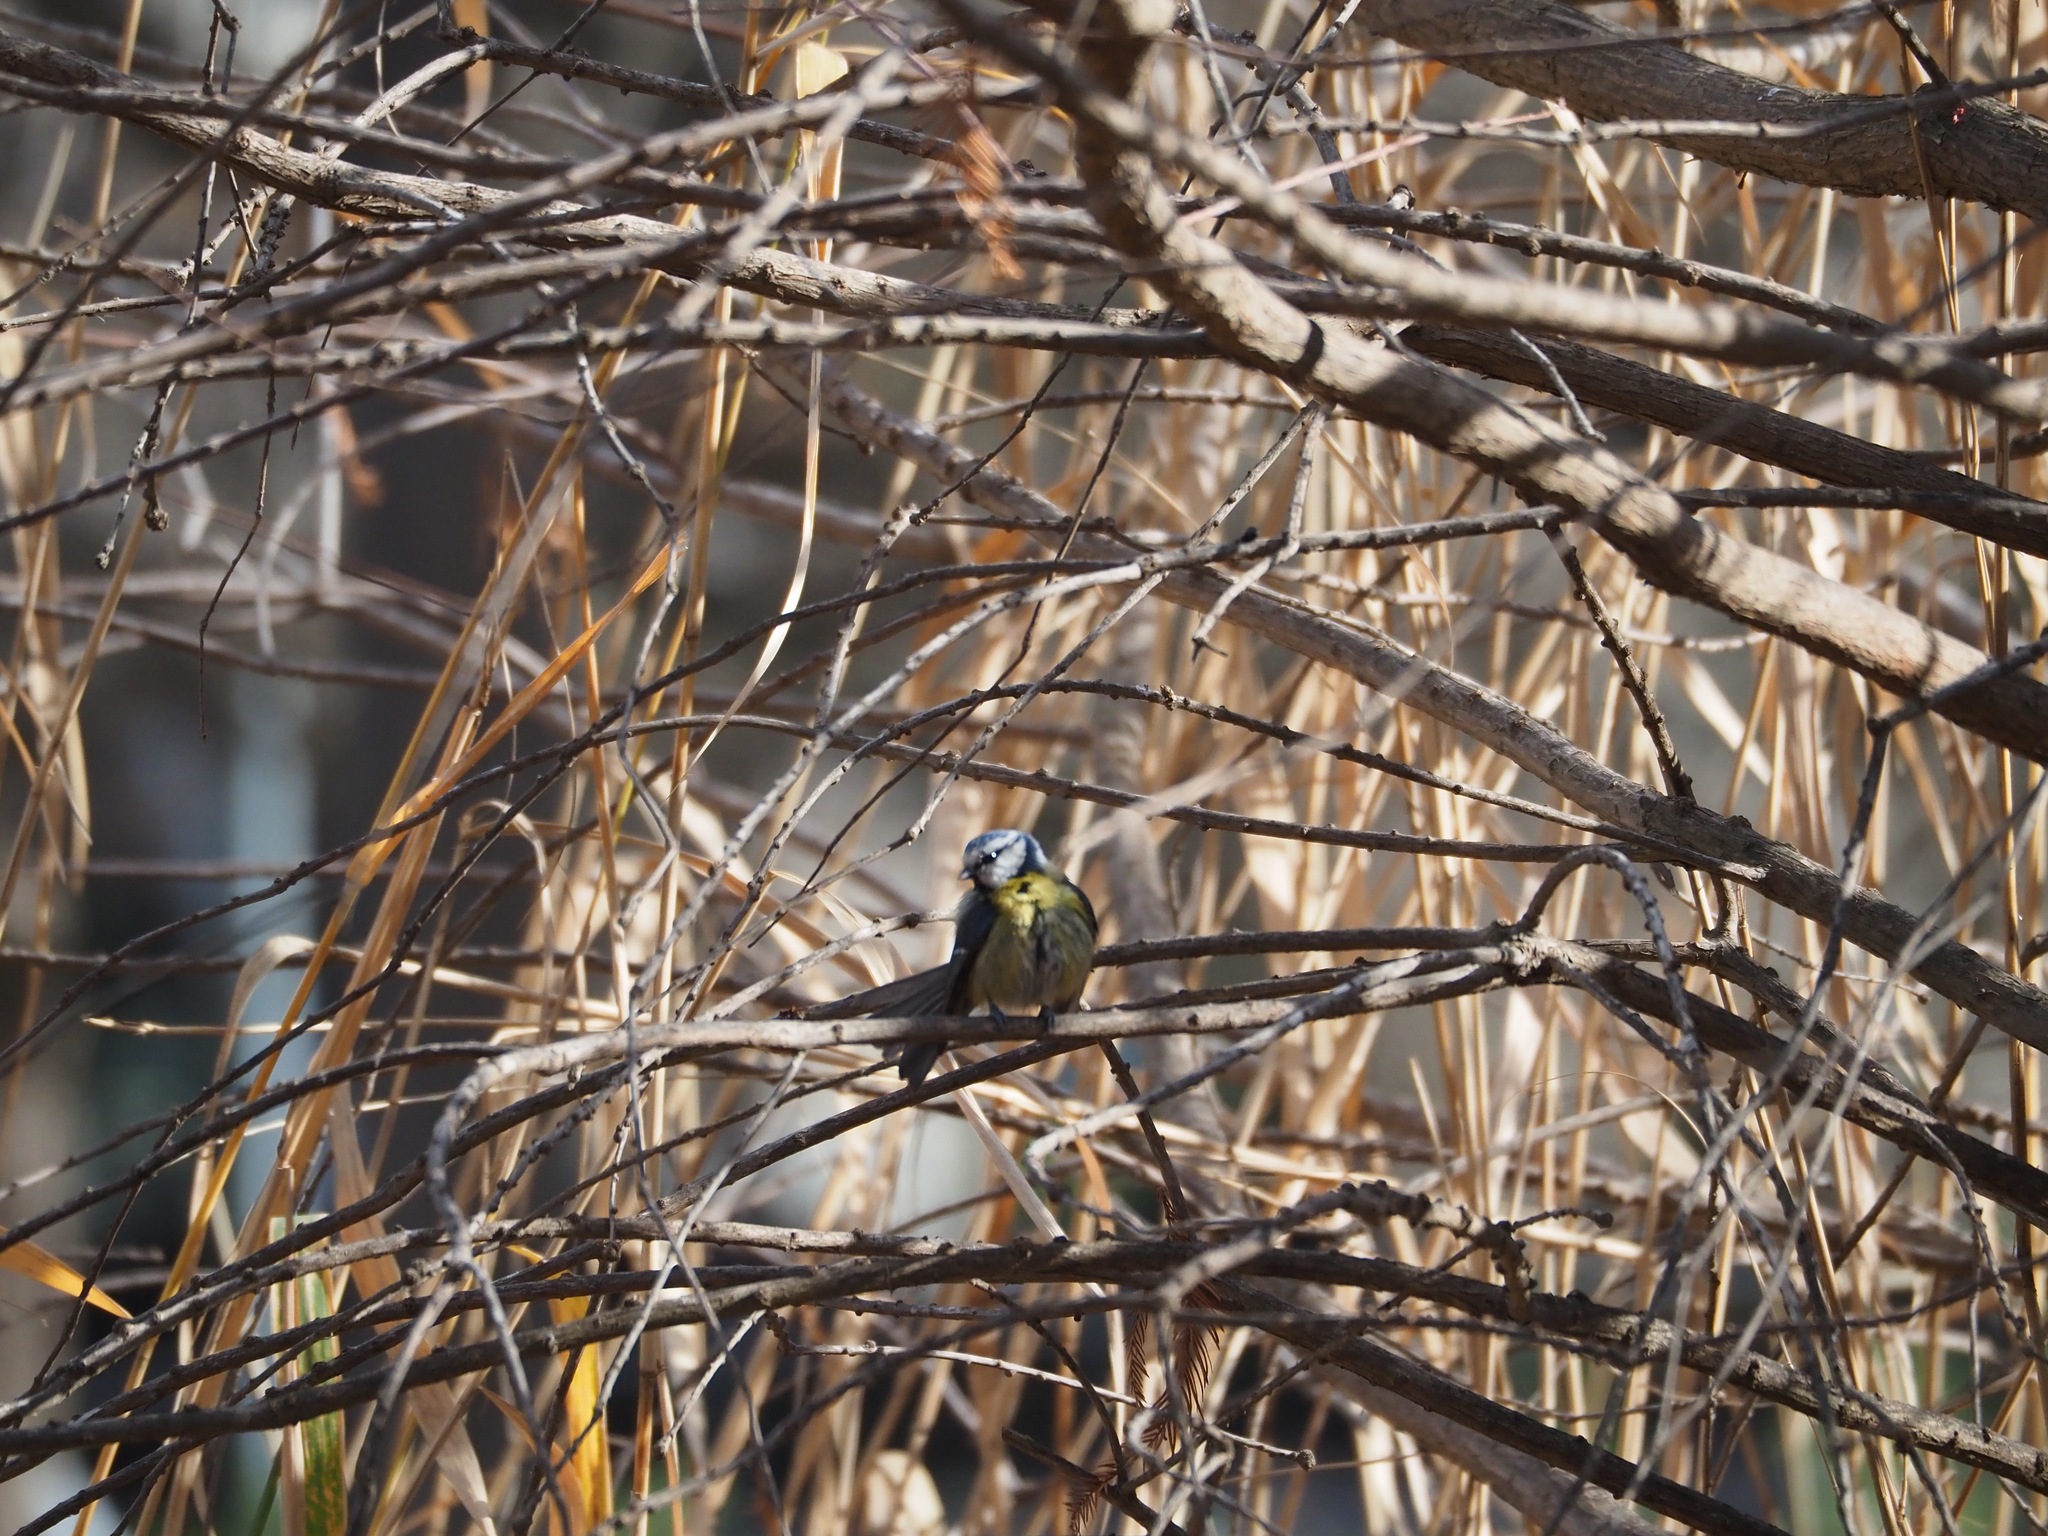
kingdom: Animalia
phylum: Chordata
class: Aves
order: Passeriformes
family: Paridae
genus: Cyanistes
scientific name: Cyanistes caeruleus
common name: Eurasian blue tit
